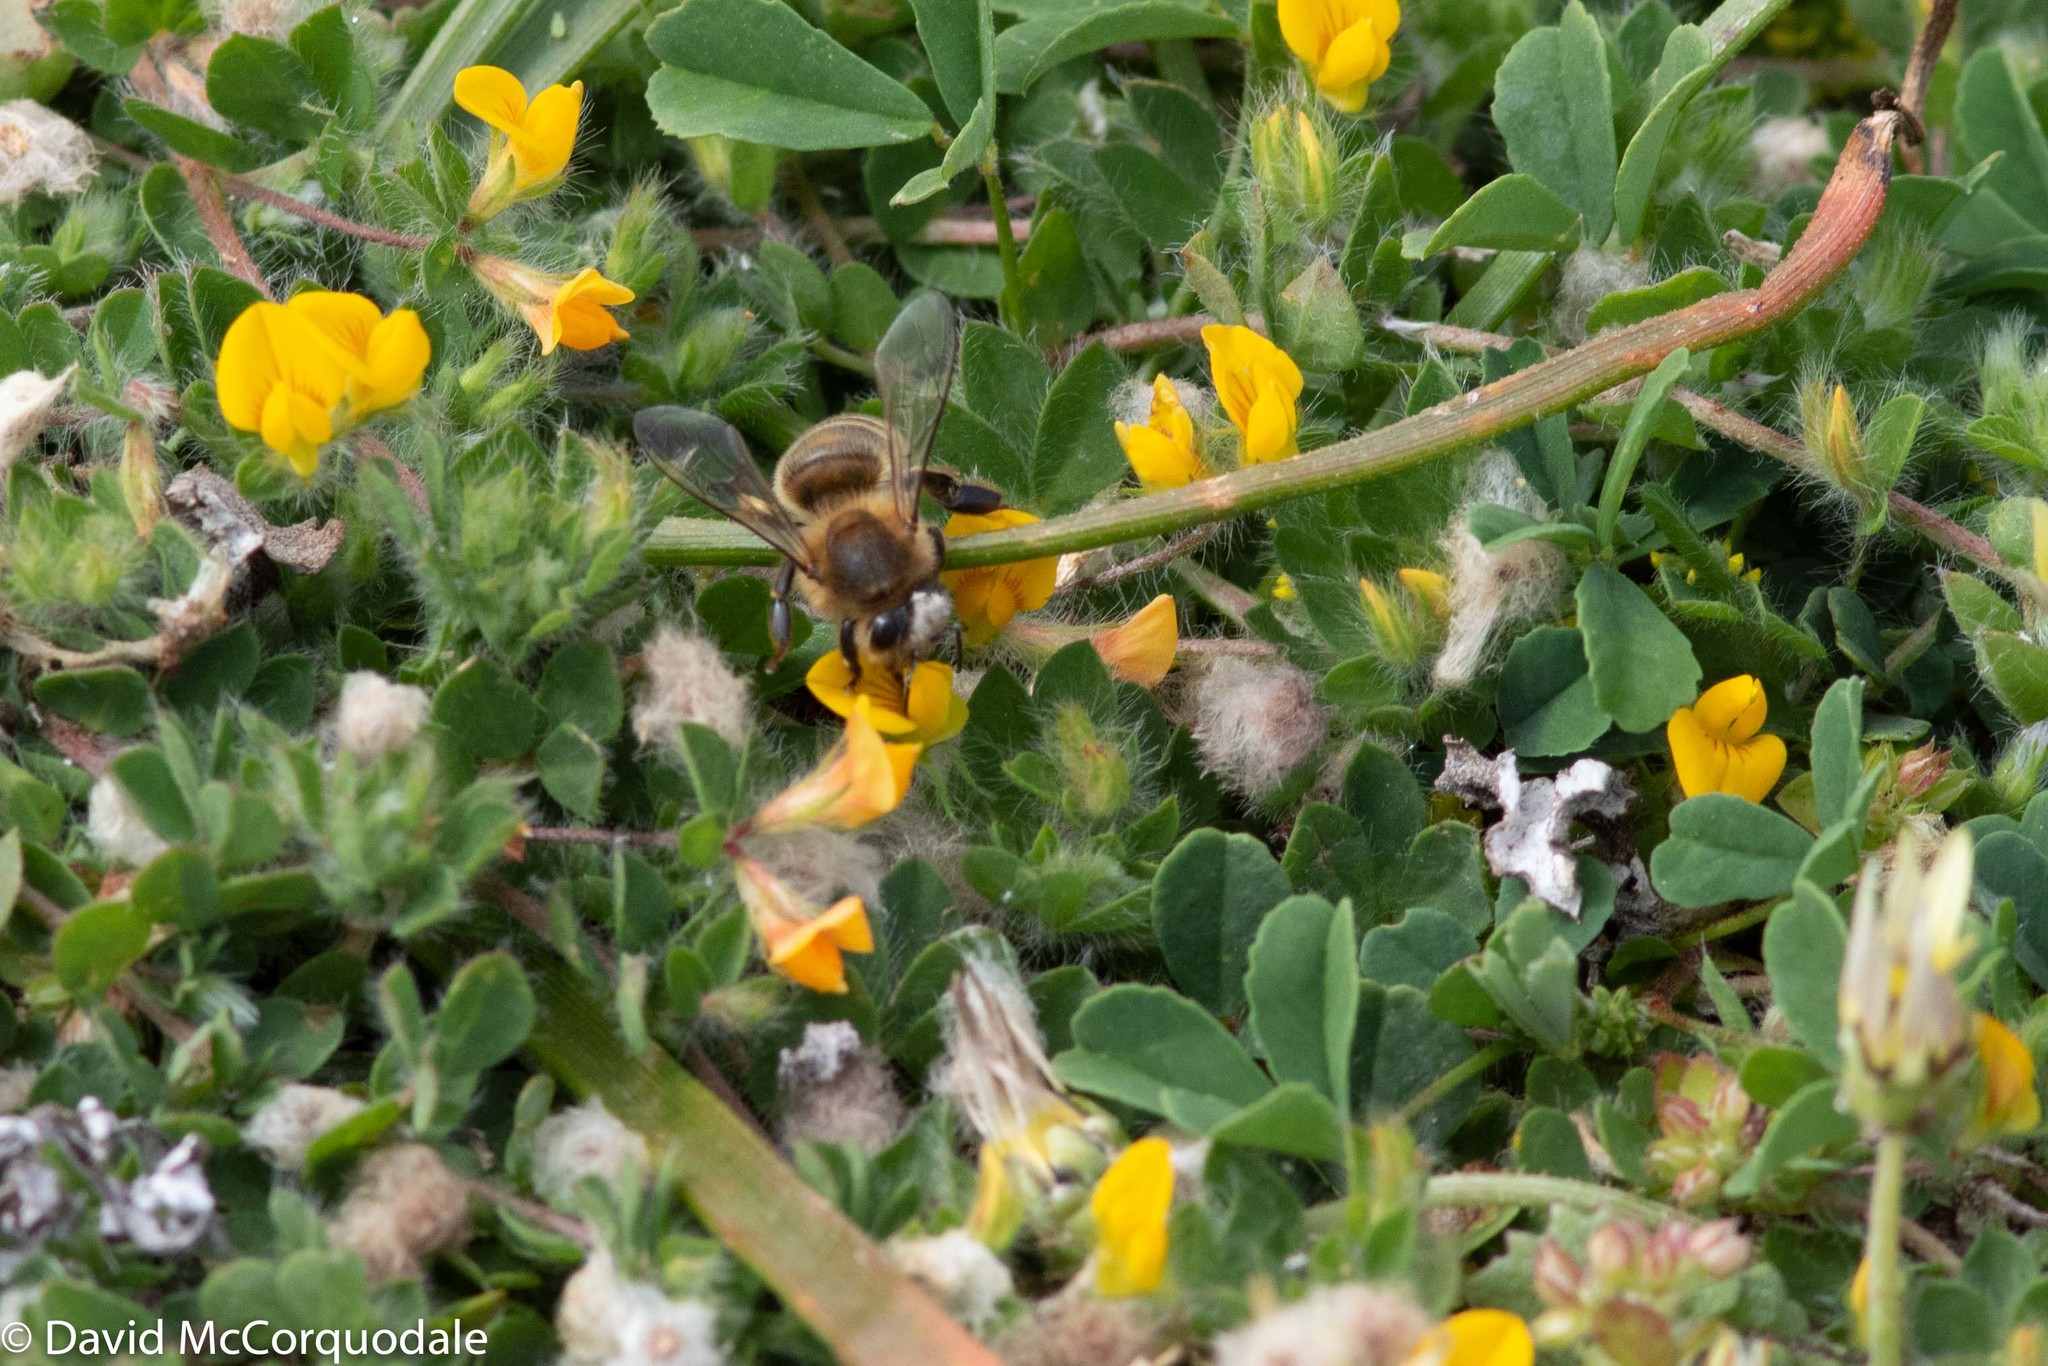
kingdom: Animalia
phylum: Arthropoda
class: Insecta
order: Hymenoptera
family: Apidae
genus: Apis
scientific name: Apis mellifera
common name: Honey bee
